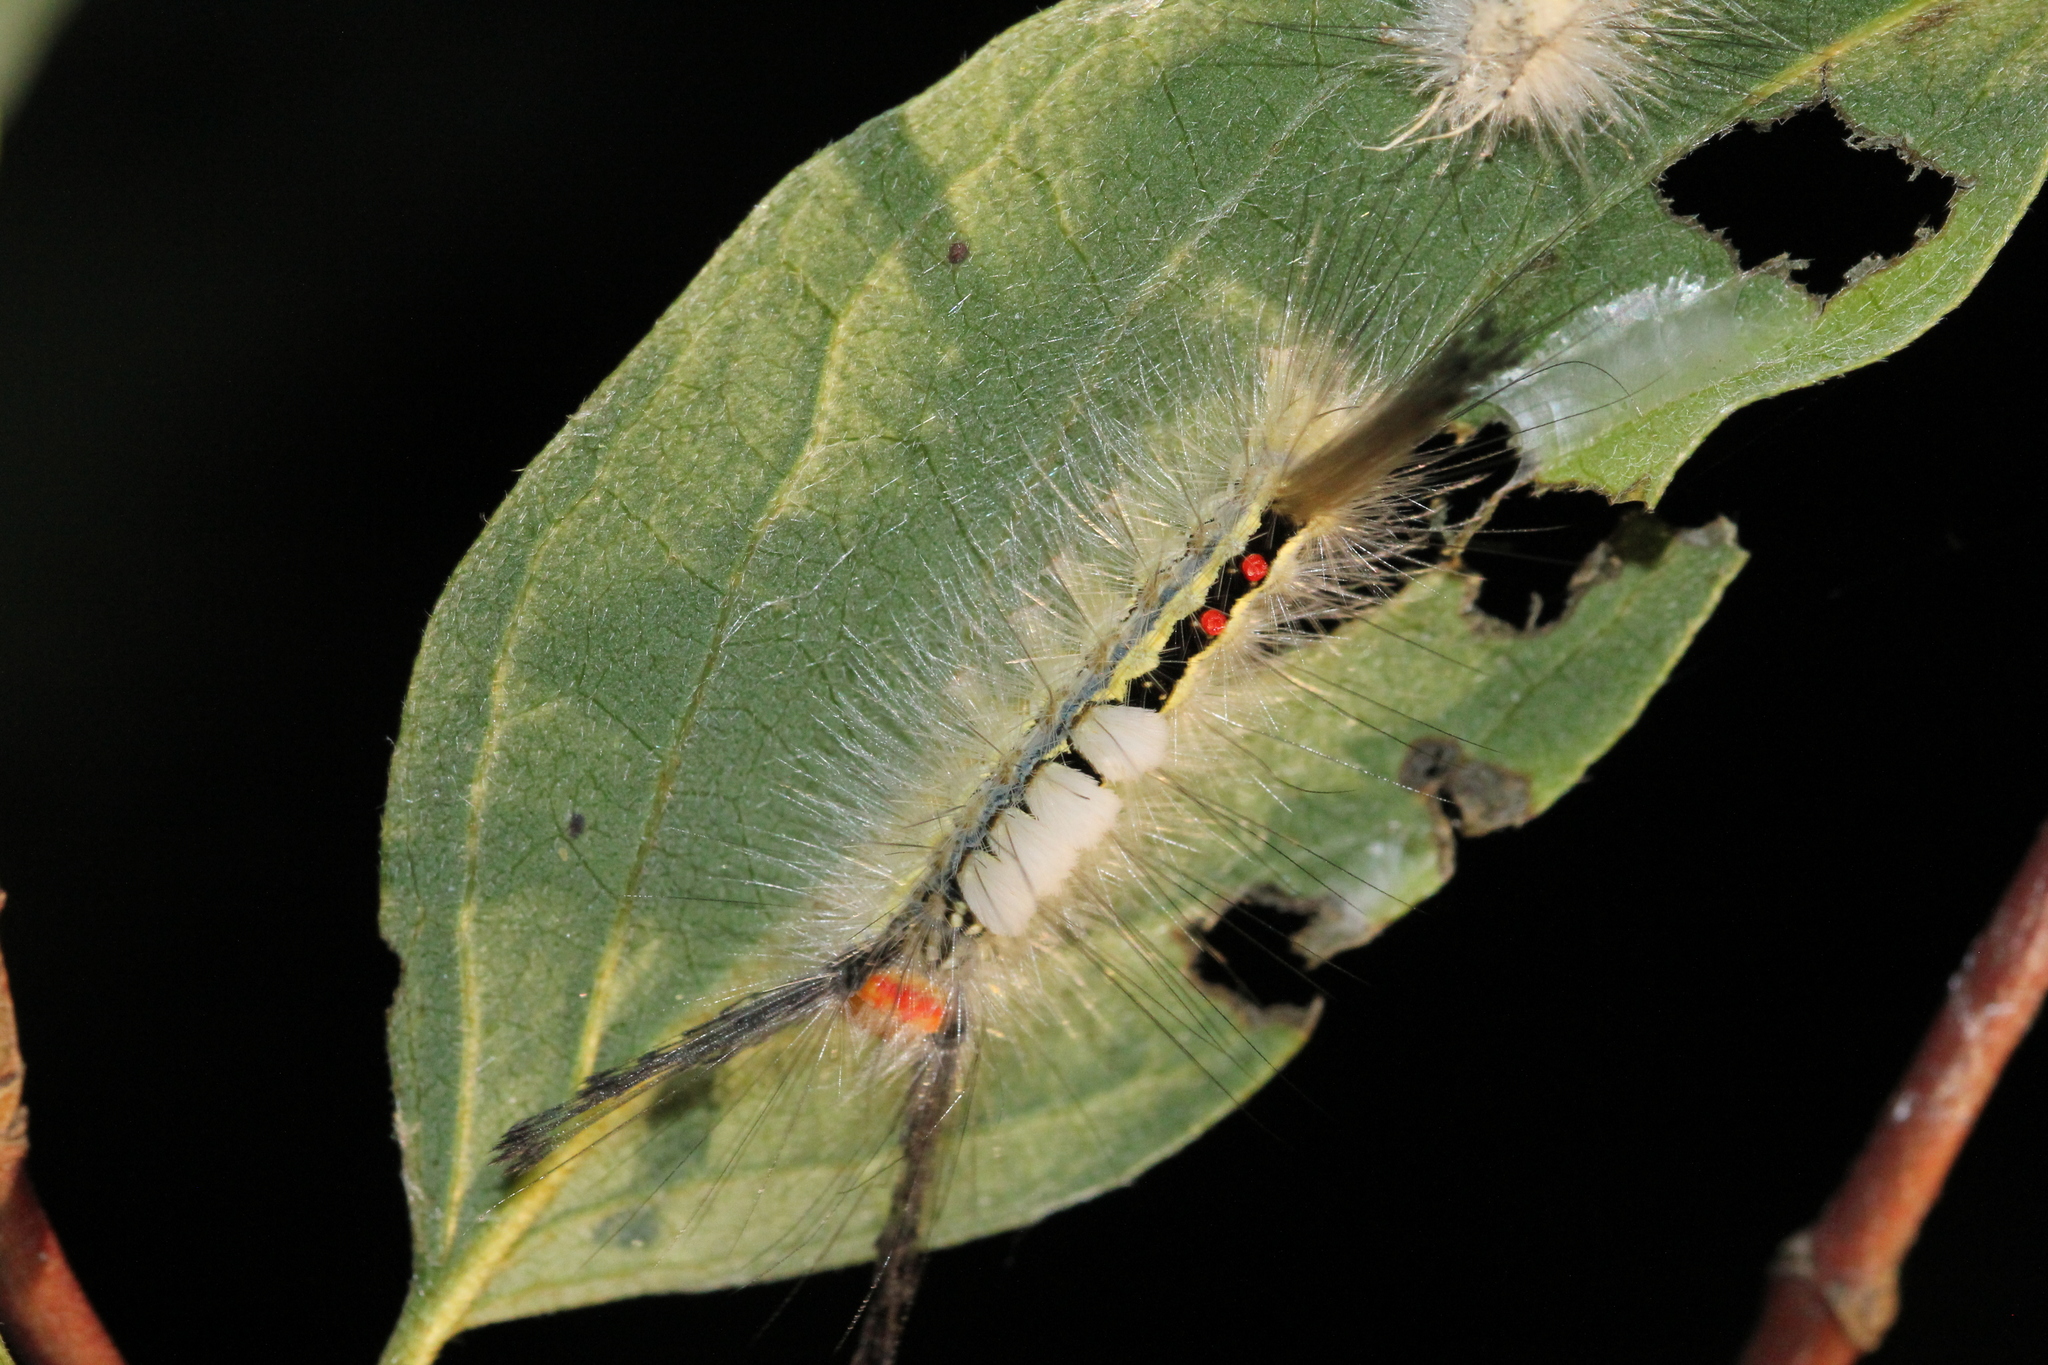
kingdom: Animalia
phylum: Arthropoda
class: Insecta
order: Lepidoptera
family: Erebidae
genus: Orgyia
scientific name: Orgyia leucostigma
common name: White-marked tussock moth
